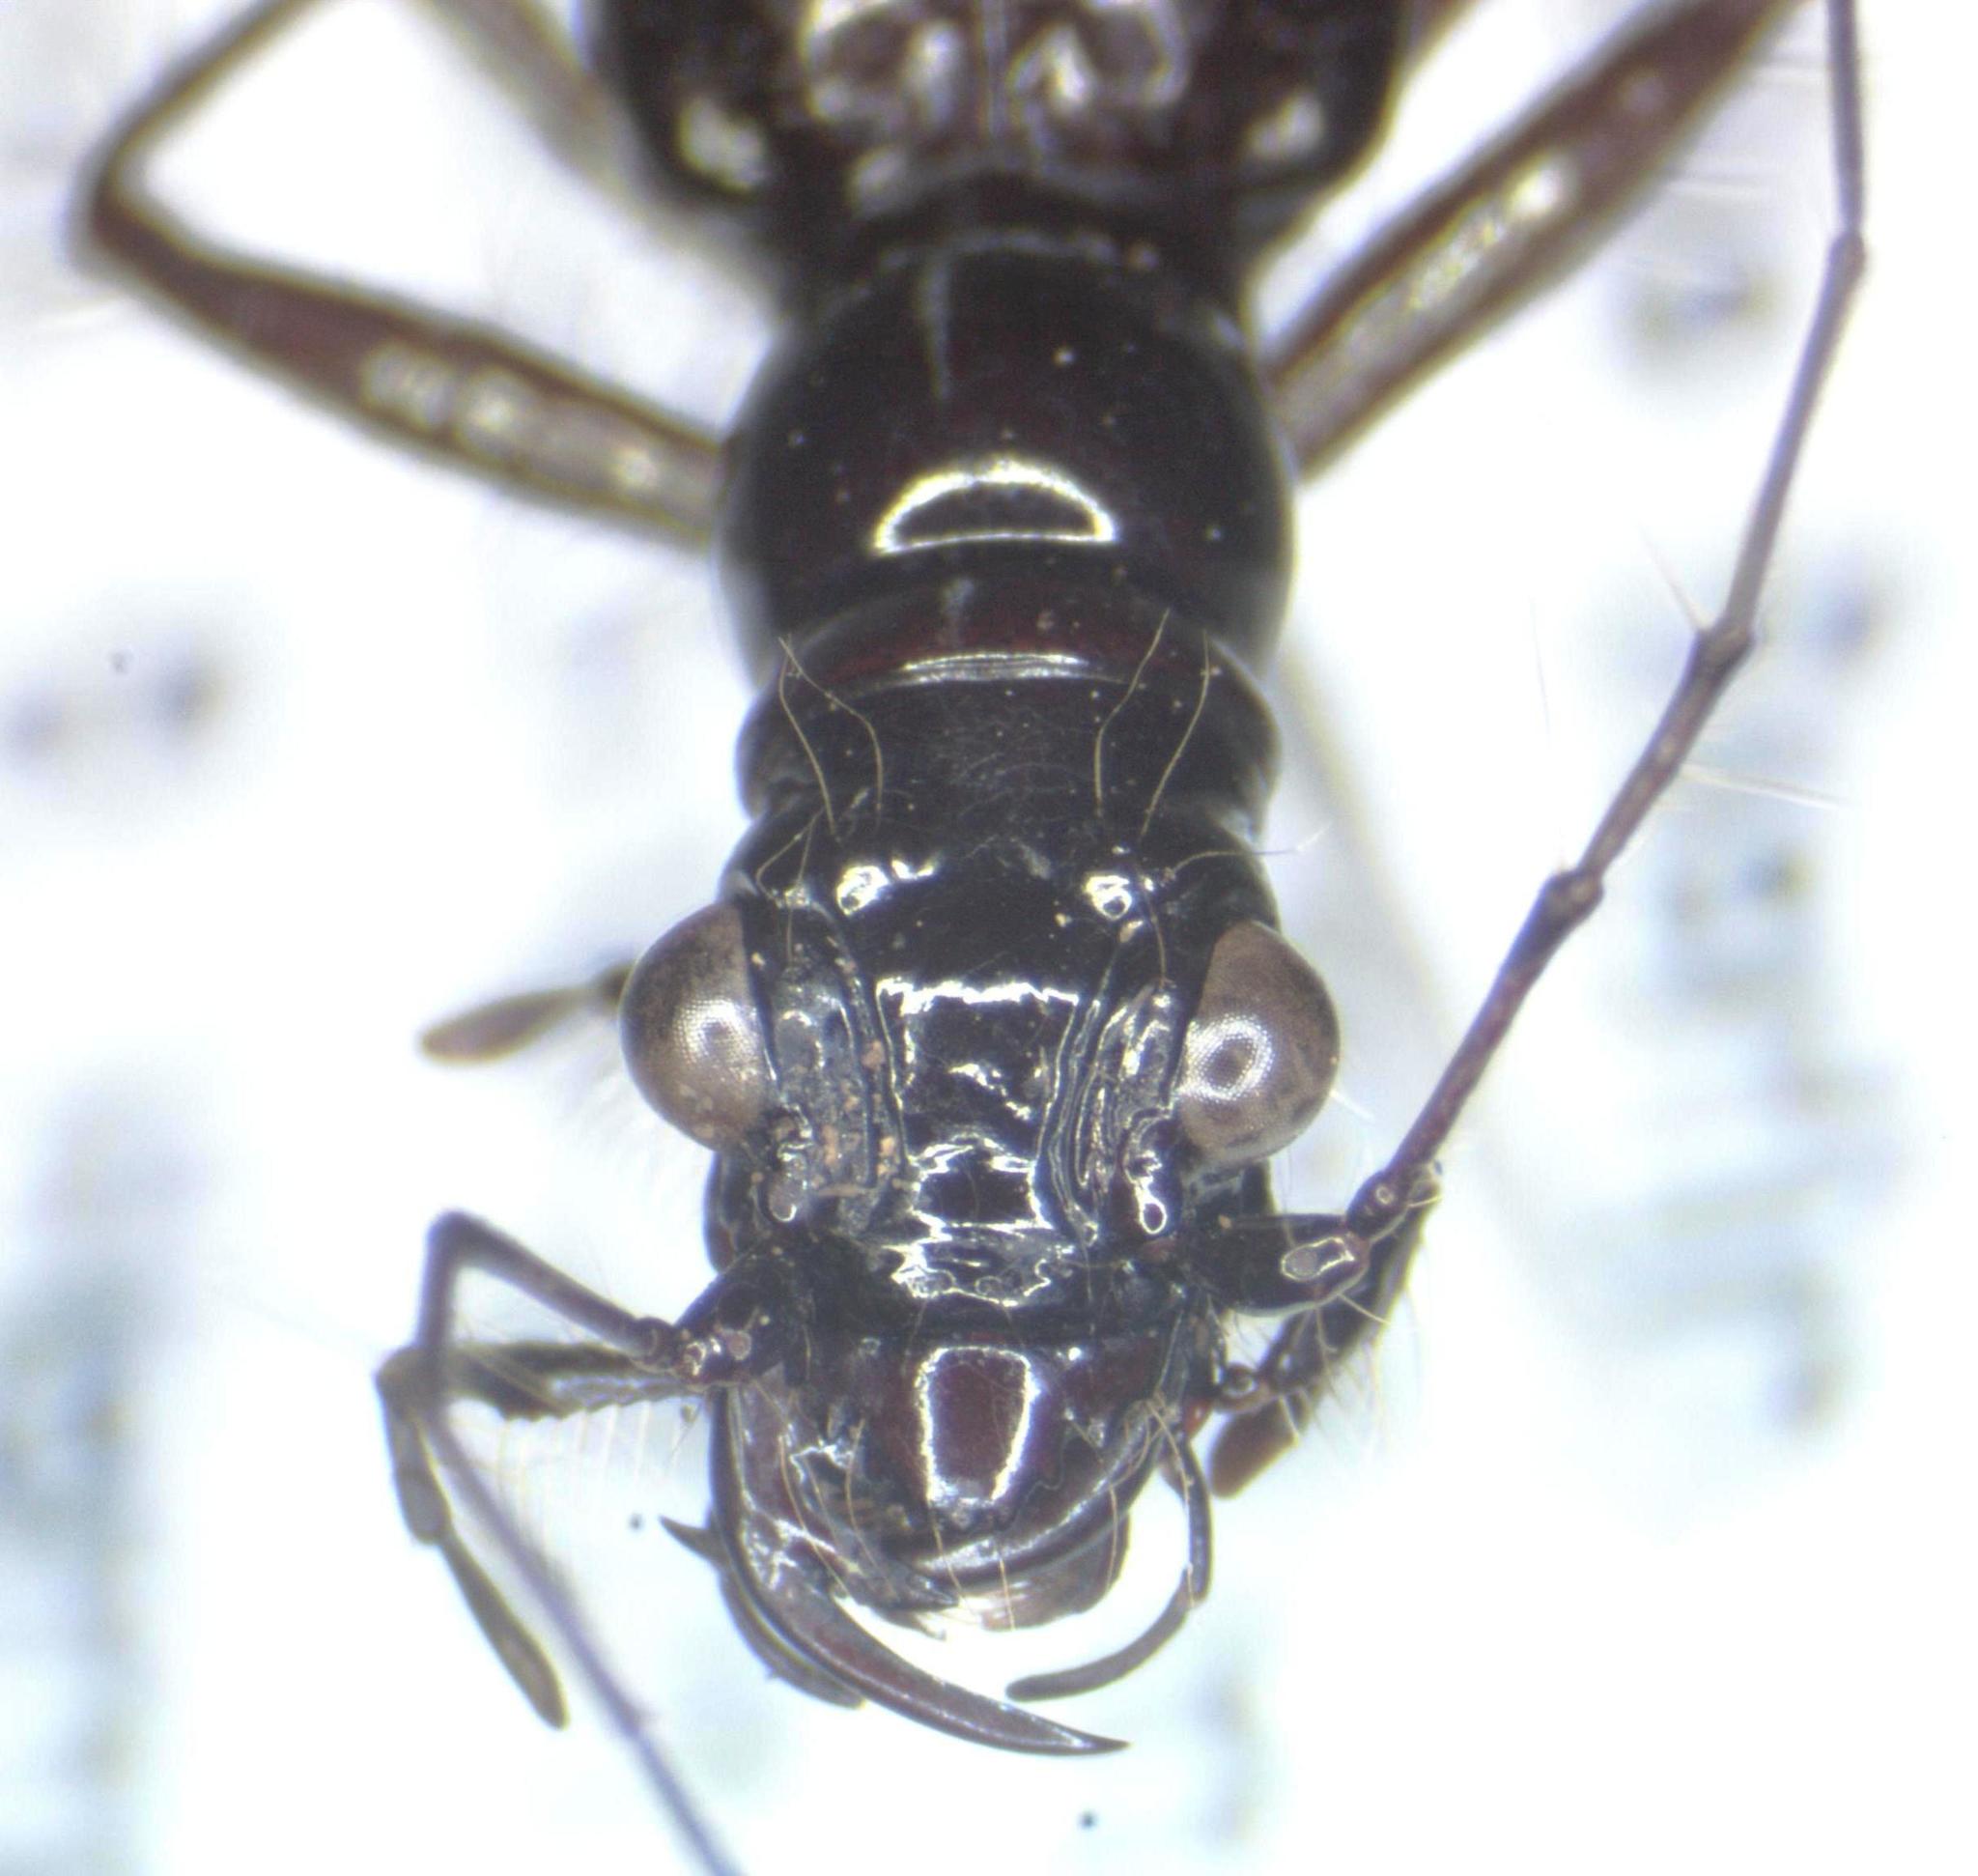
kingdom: Animalia
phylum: Arthropoda
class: Insecta
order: Coleoptera
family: Carabidae
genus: Ctenostoma
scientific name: Ctenostoma maculicorne
